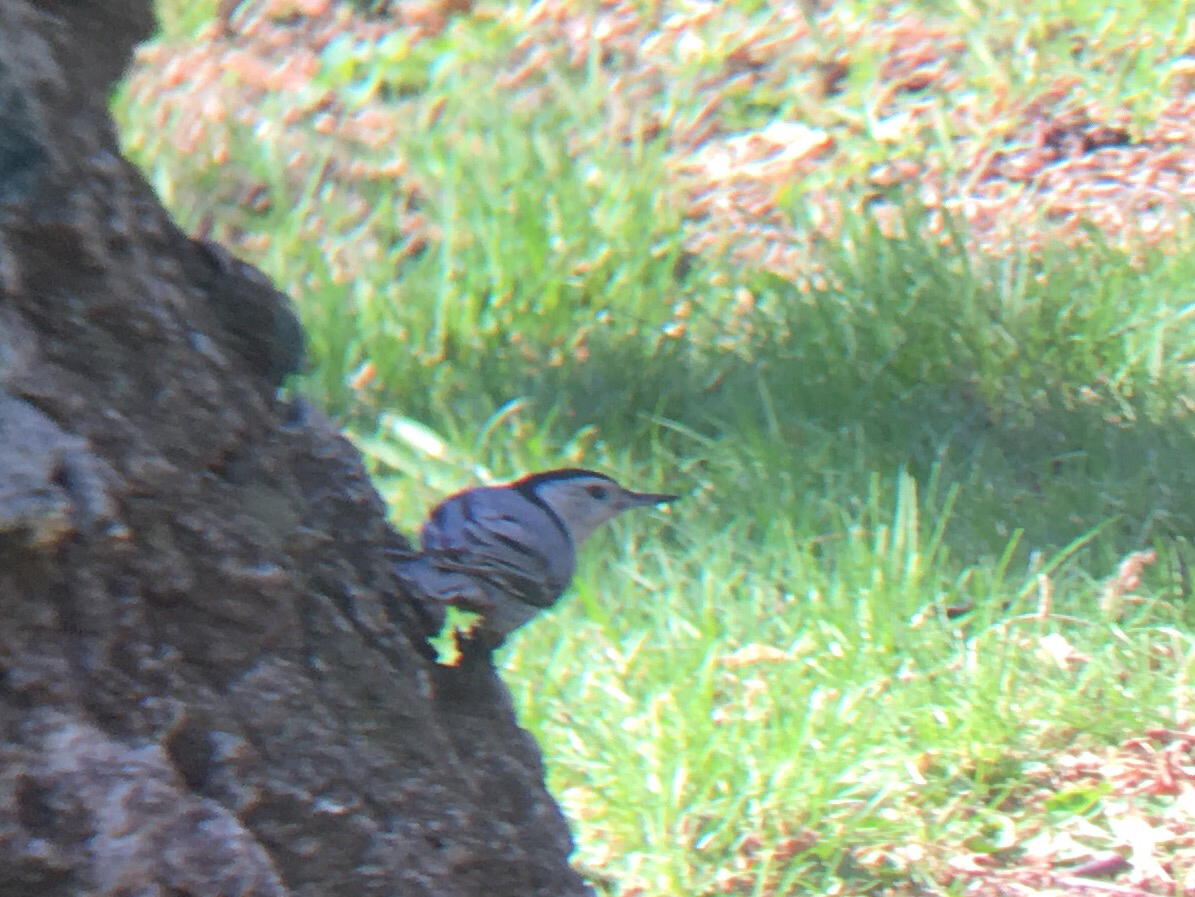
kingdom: Animalia
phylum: Chordata
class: Aves
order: Passeriformes
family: Sittidae
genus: Sitta
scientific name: Sitta carolinensis
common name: White-breasted nuthatch
